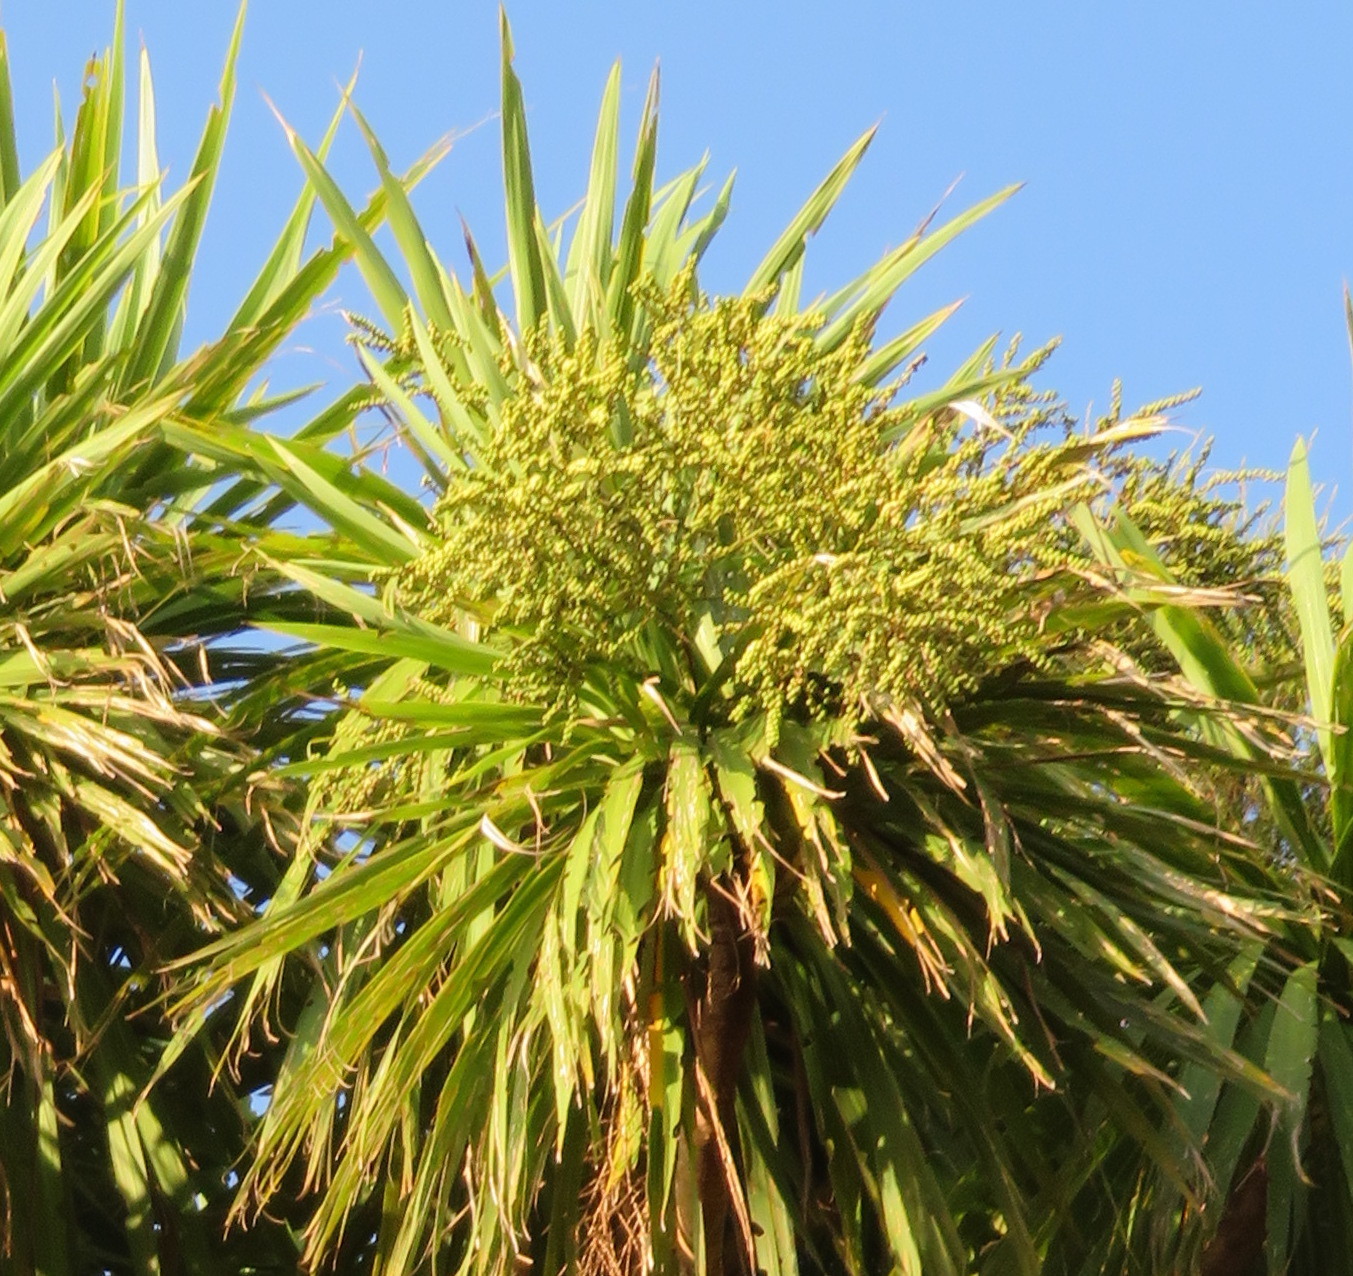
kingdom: Animalia
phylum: Arthropoda
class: Insecta
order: Lepidoptera
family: Geometridae
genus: Epiphryne
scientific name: Epiphryne verriculata
